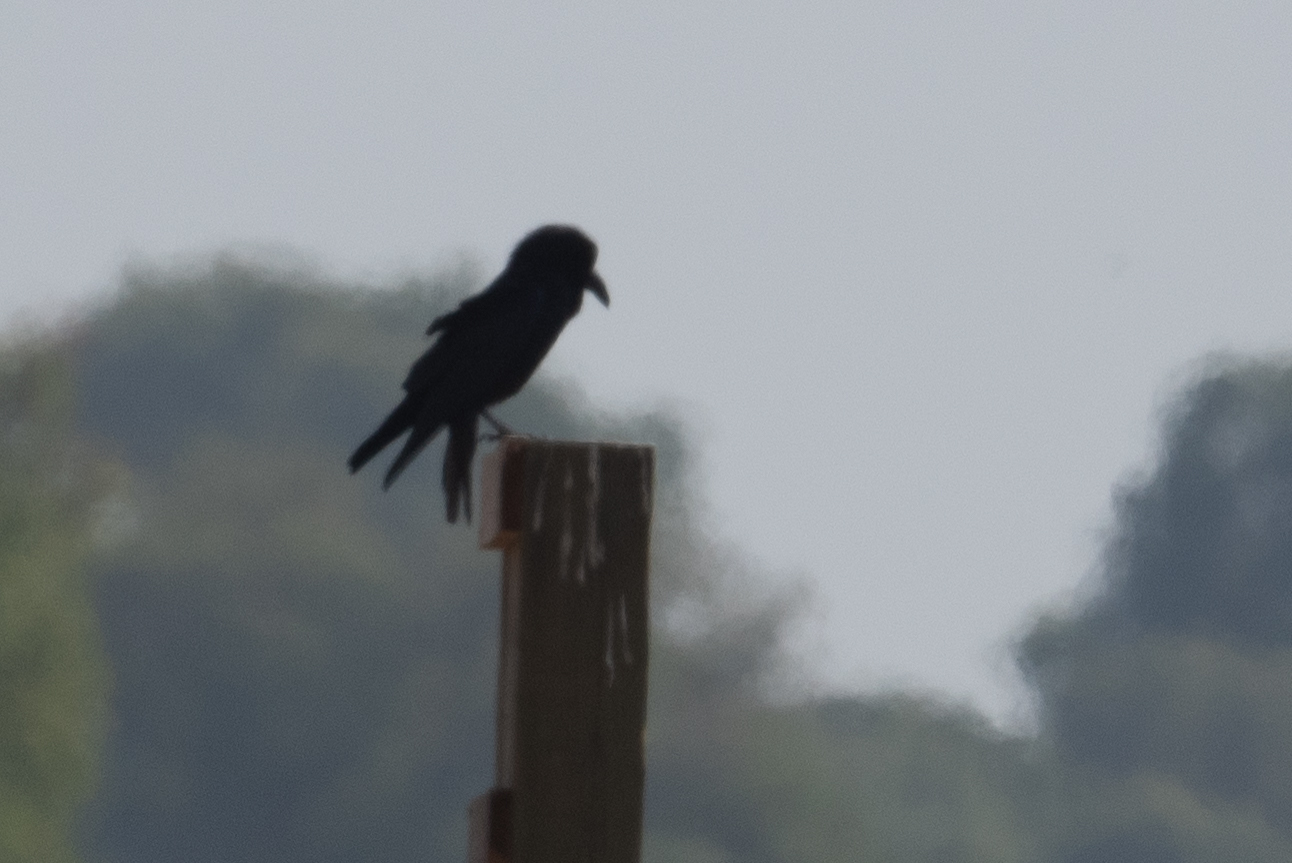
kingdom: Animalia
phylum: Chordata
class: Aves
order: Passeriformes
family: Corvidae
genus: Corvus
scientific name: Corvus corax
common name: Common raven
